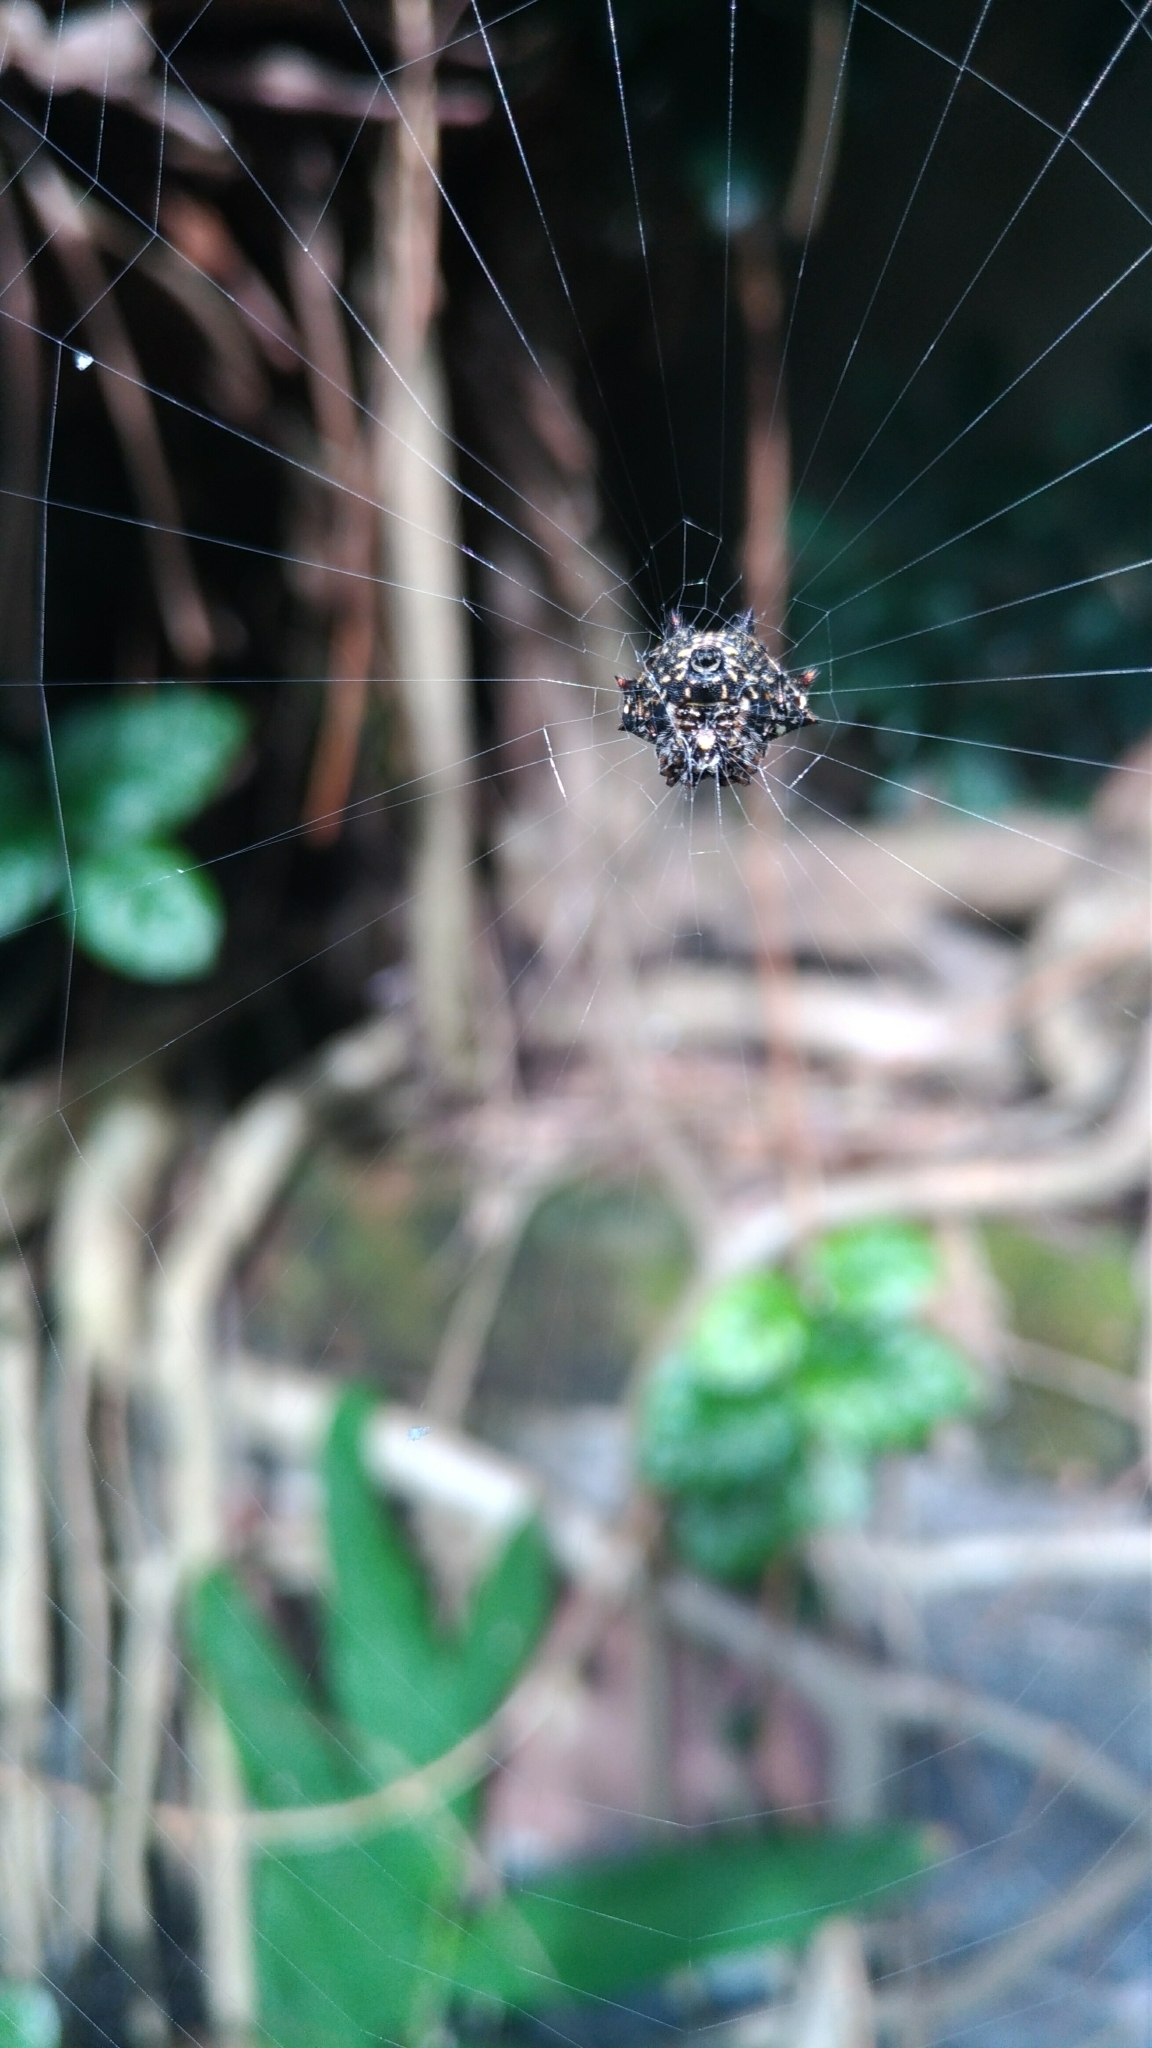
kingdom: Animalia
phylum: Arthropoda
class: Arachnida
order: Araneae
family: Araneidae
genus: Thelacantha
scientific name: Thelacantha brevispina
